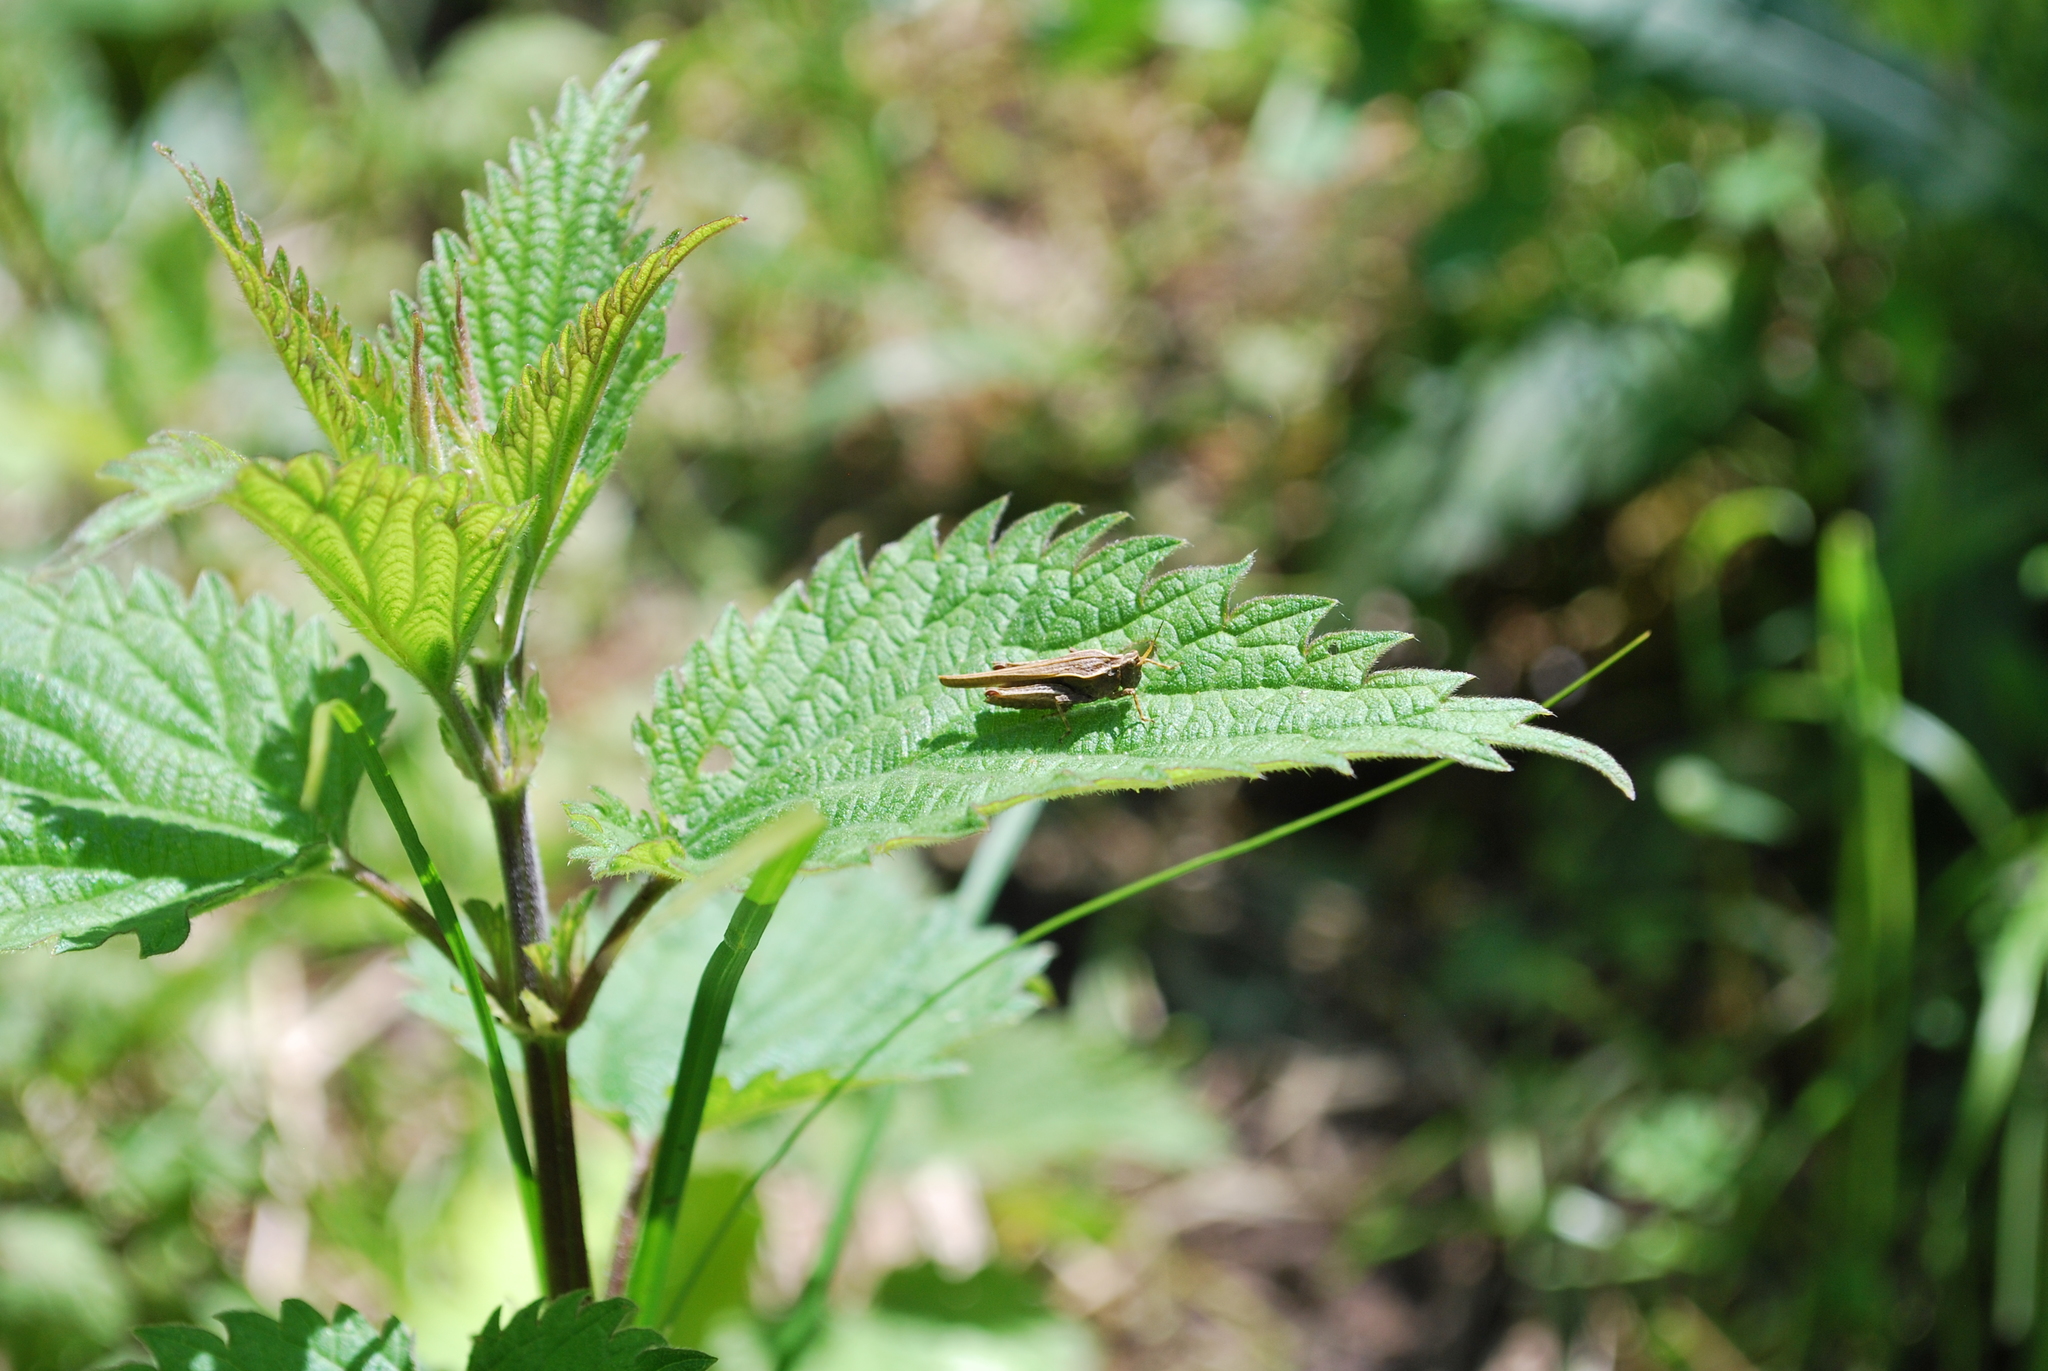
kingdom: Animalia
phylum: Arthropoda
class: Insecta
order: Orthoptera
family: Tetrigidae
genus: Tetrix
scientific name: Tetrix subulata
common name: Slender ground-hopper
